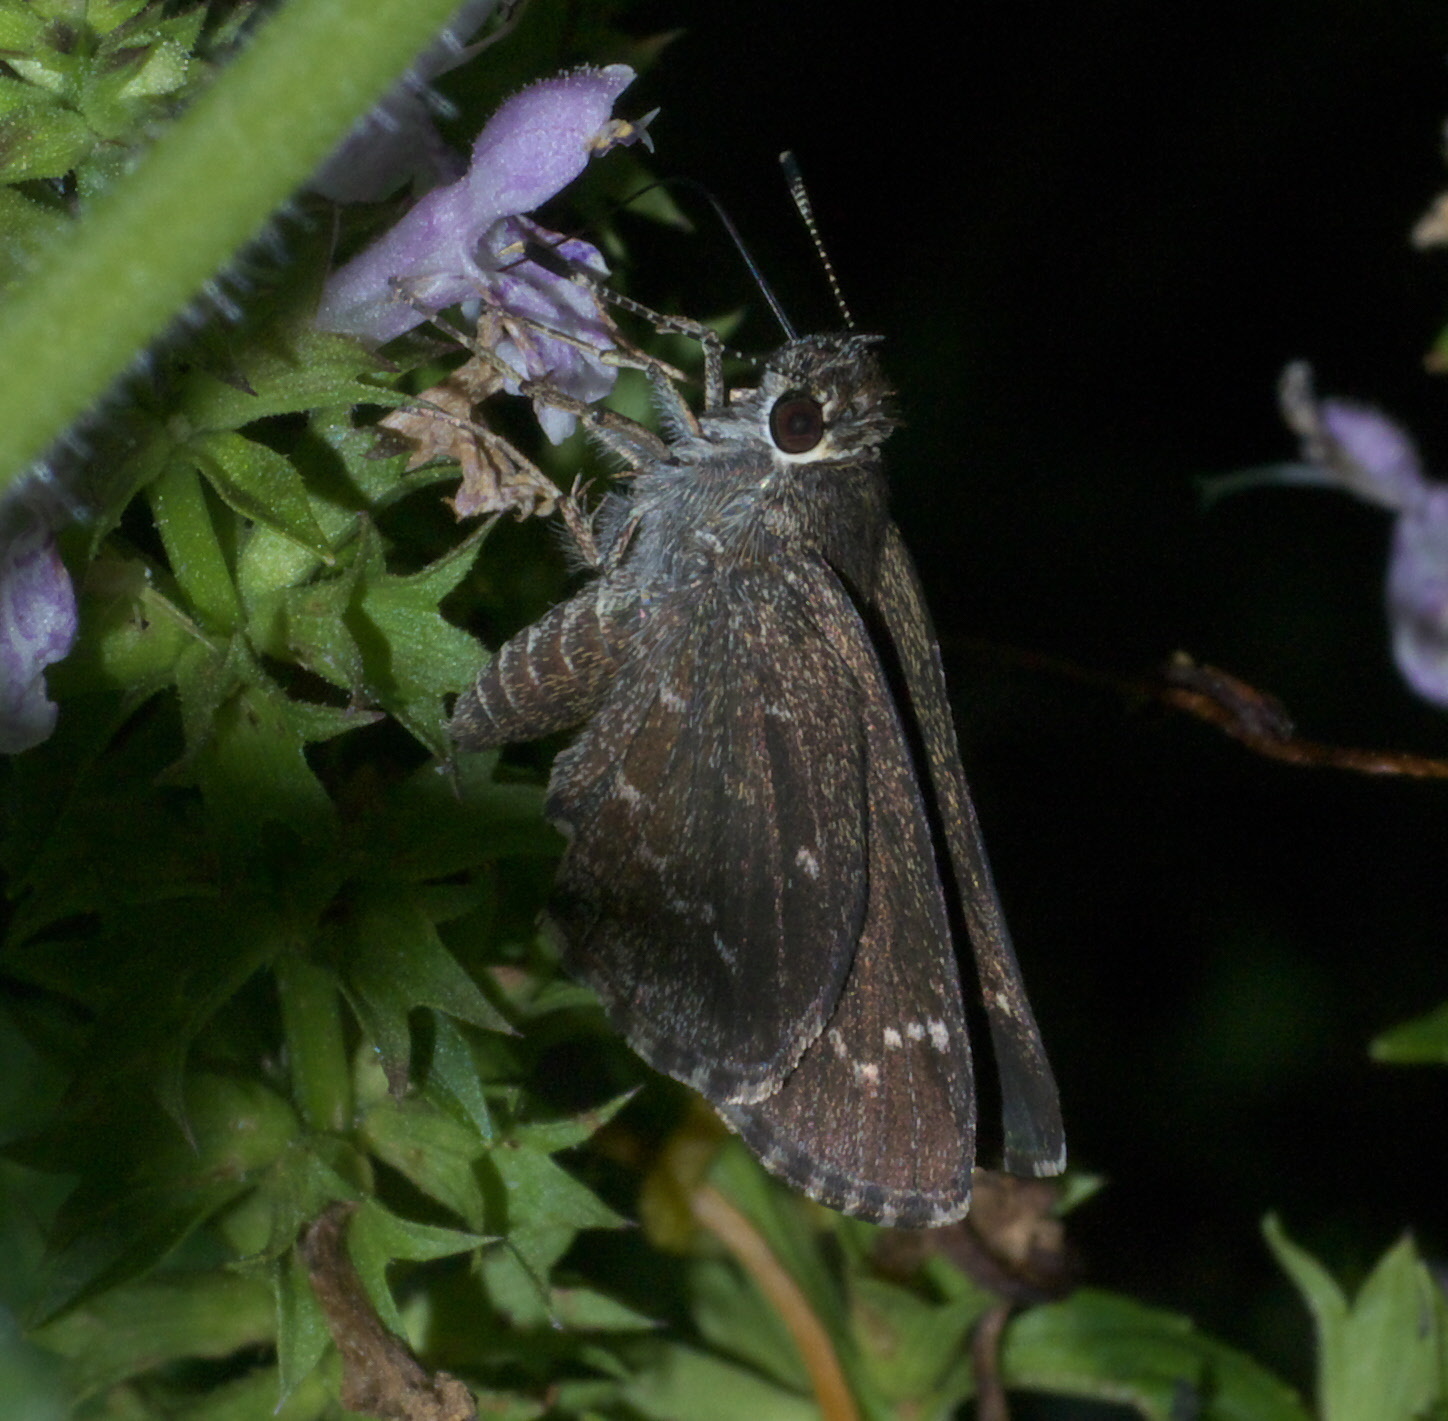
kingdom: Animalia
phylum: Arthropoda
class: Insecta
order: Lepidoptera
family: Hesperiidae
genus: Mastor
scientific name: Mastor celia
